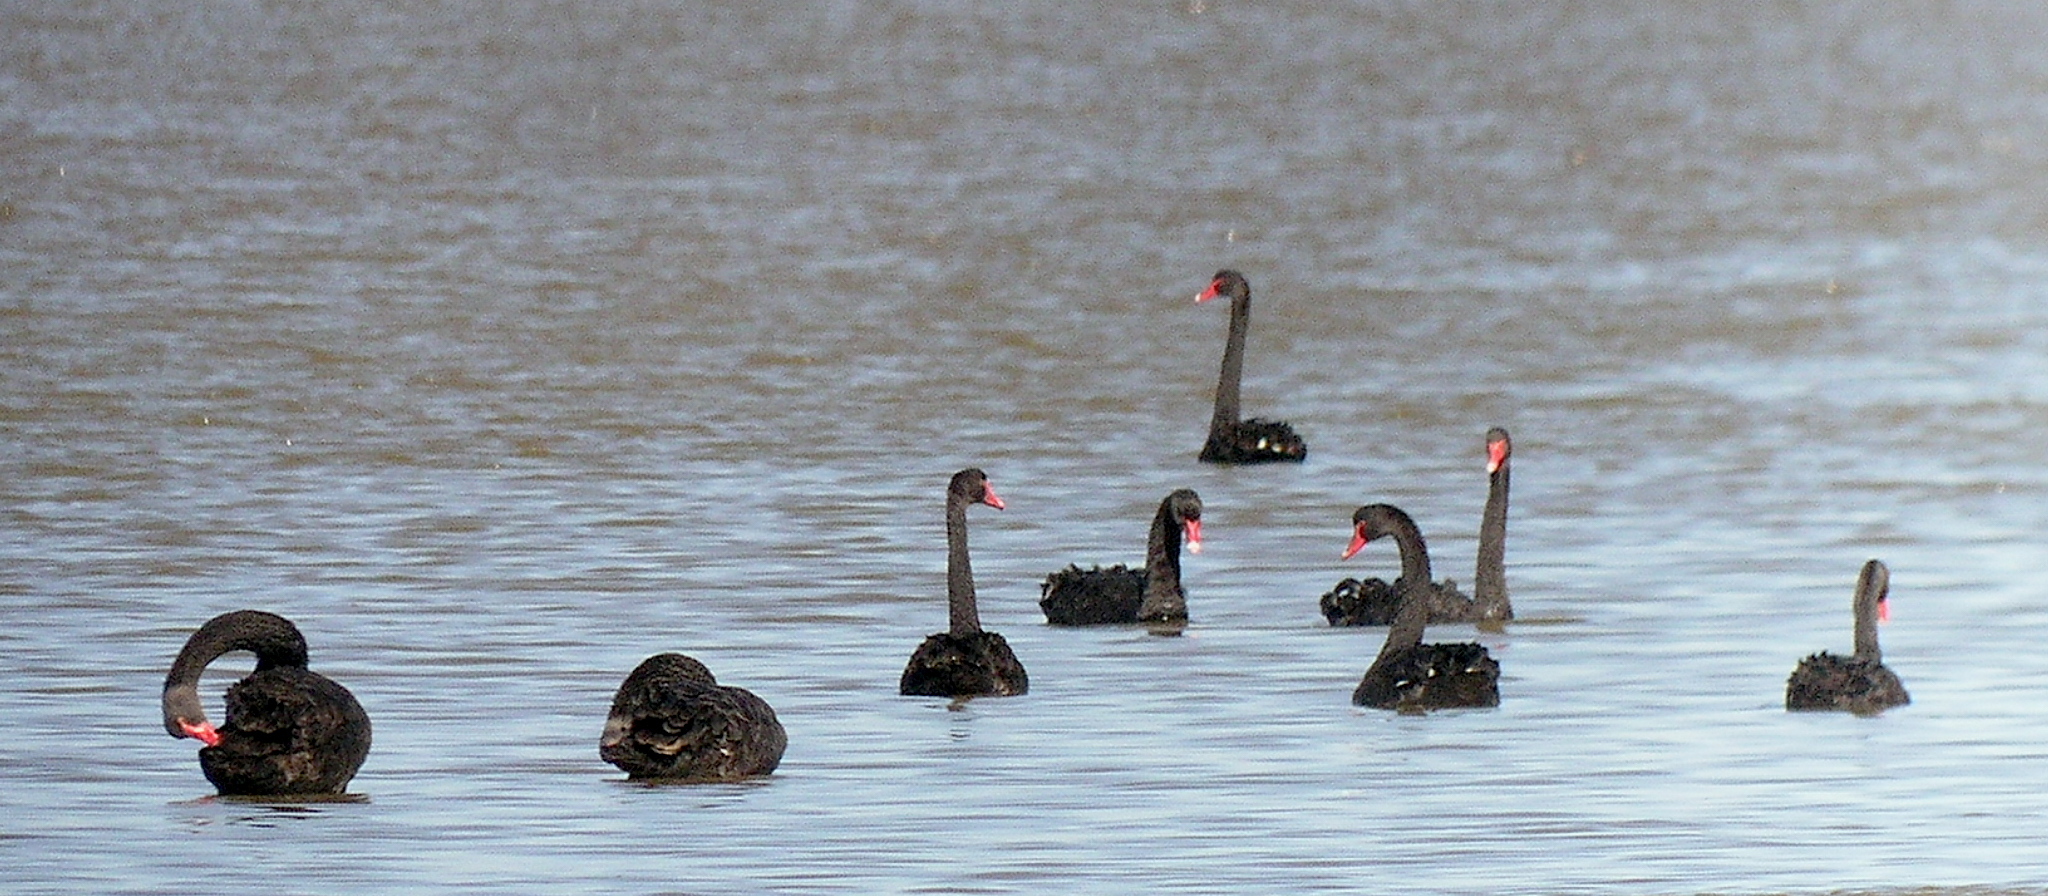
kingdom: Animalia
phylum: Chordata
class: Aves
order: Anseriformes
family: Anatidae
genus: Cygnus
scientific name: Cygnus atratus
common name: Black swan
